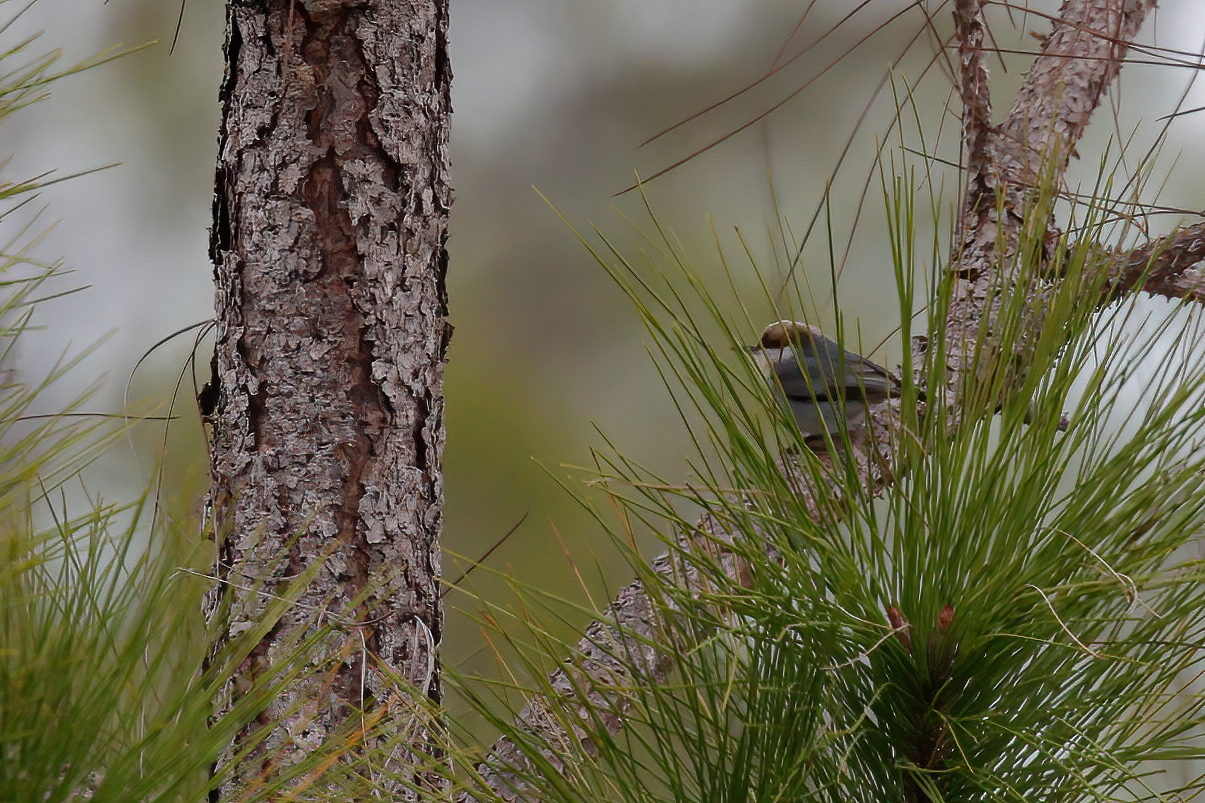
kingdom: Animalia
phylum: Chordata
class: Aves
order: Passeriformes
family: Sittidae
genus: Sitta
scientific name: Sitta pusilla
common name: Brown-headed nuthatch
